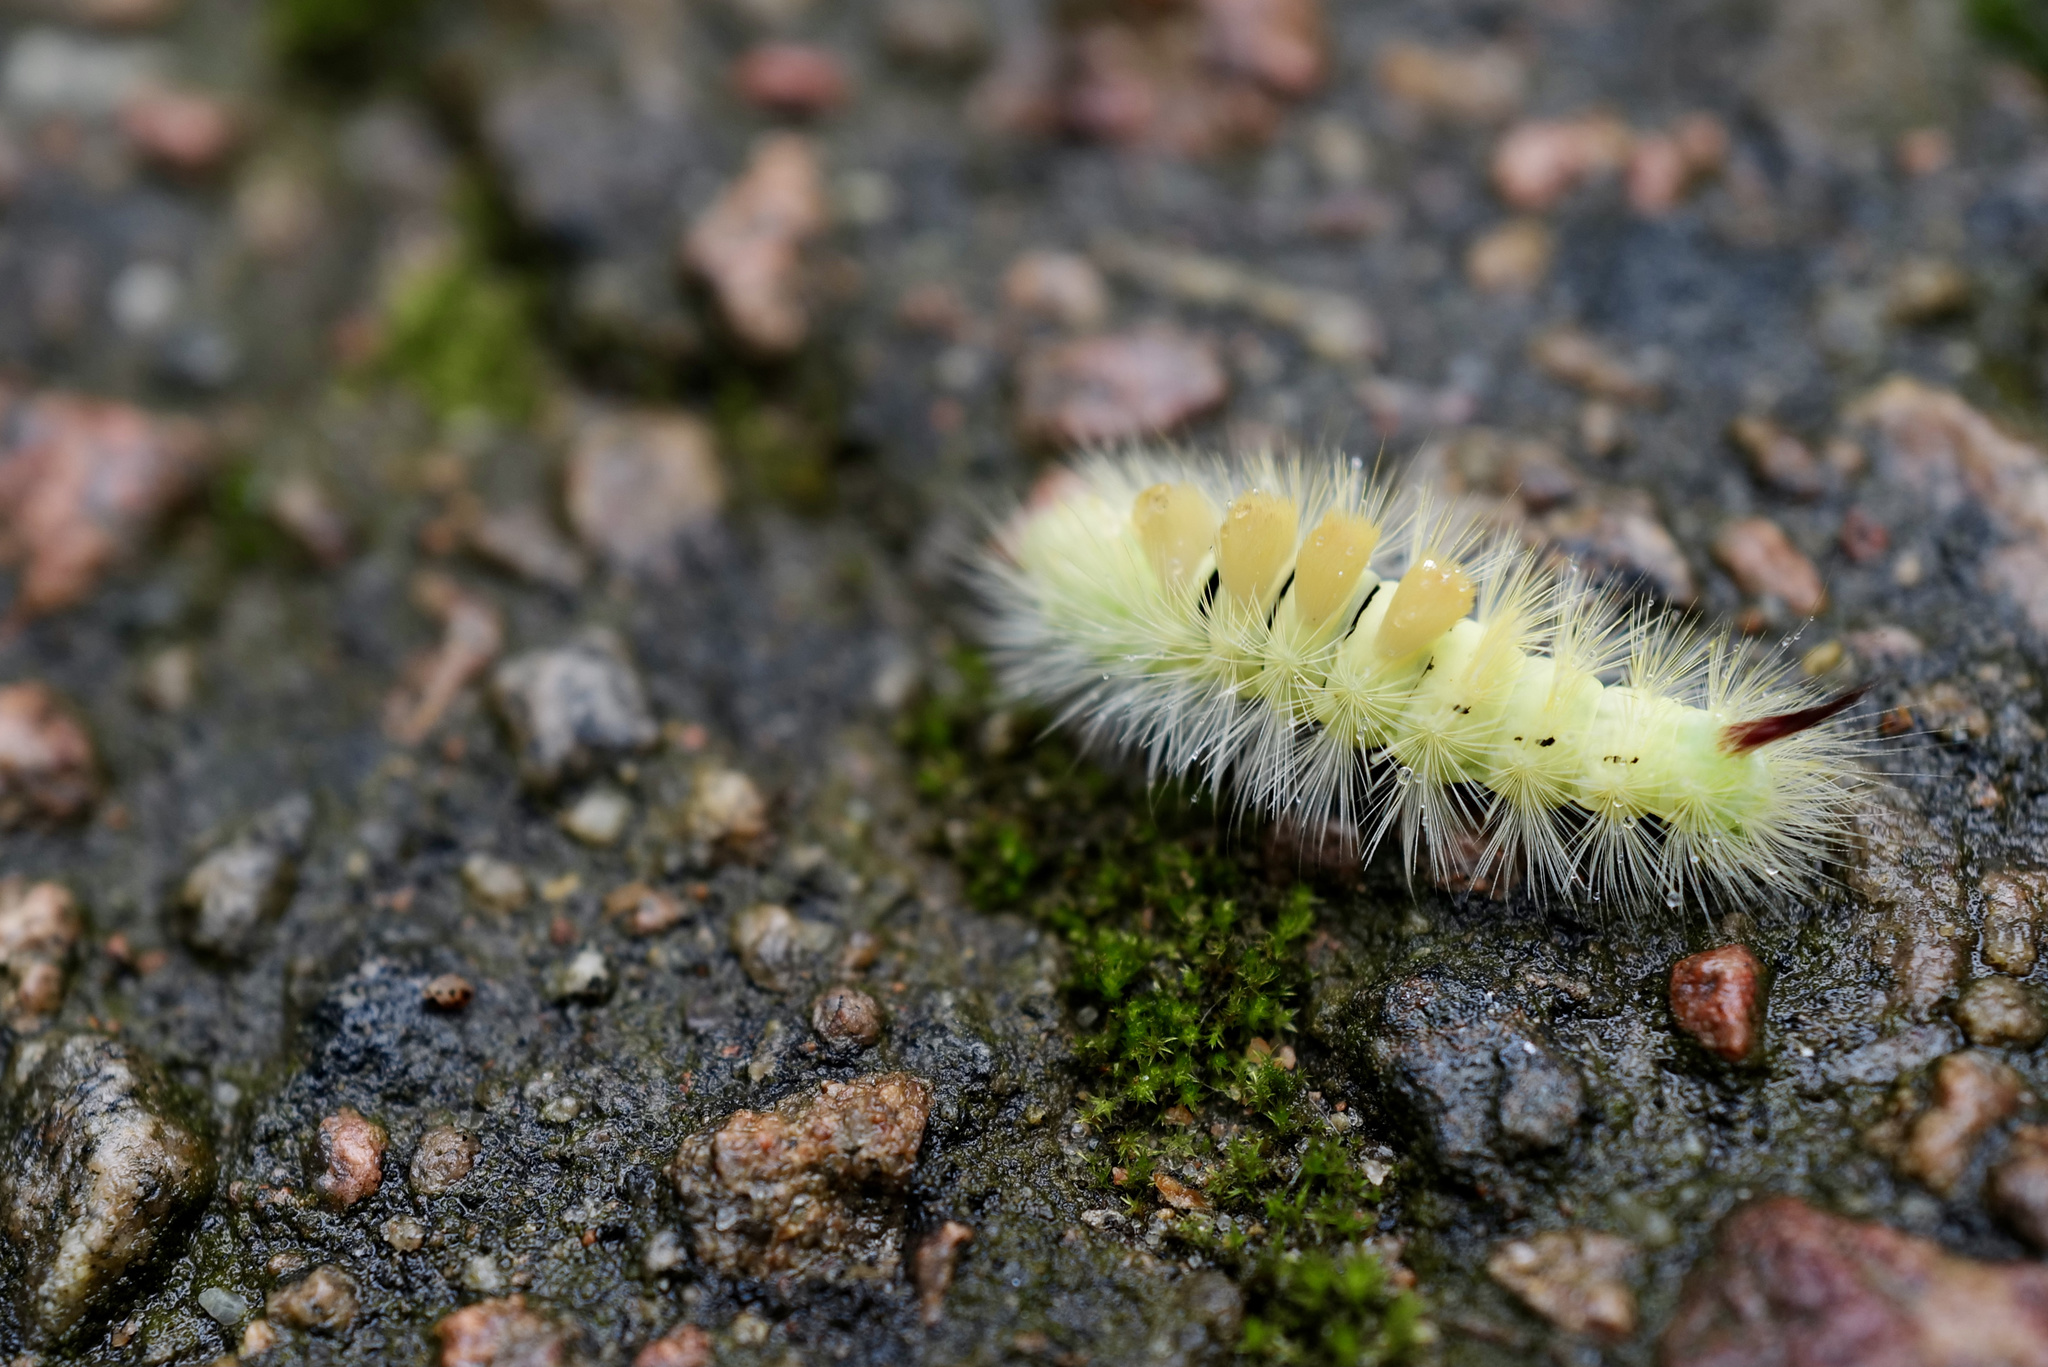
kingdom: Animalia
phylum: Arthropoda
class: Insecta
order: Lepidoptera
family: Erebidae
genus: Calliteara
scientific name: Calliteara pudibunda
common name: Pale tussock
